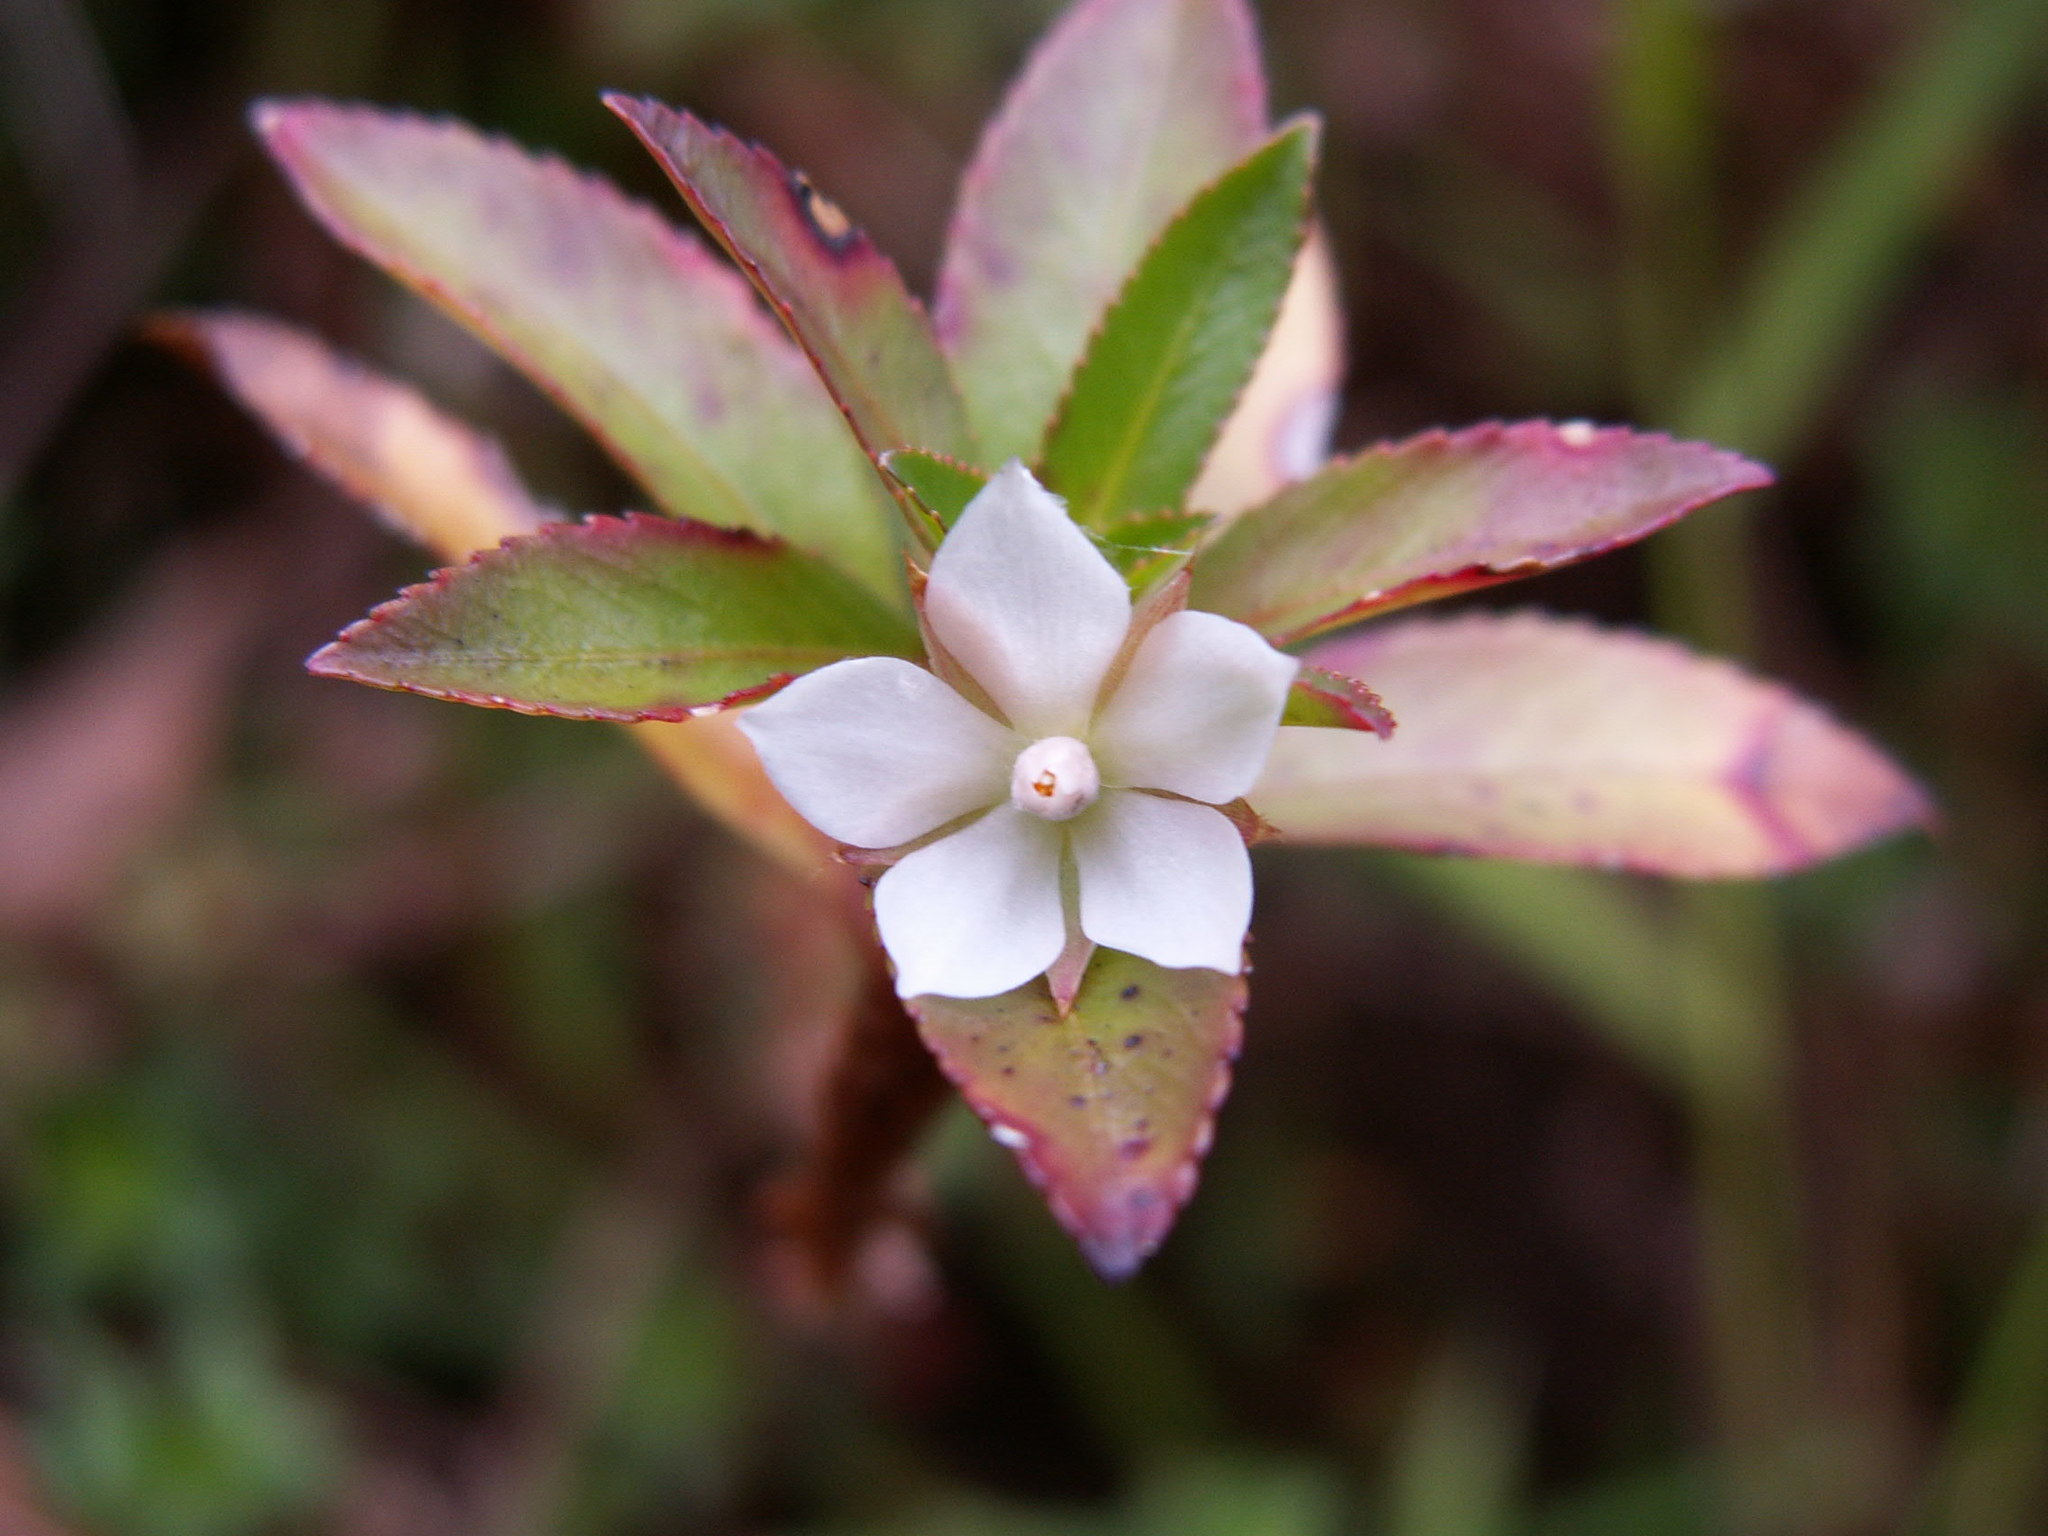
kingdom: Plantae
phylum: Tracheophyta
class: Magnoliopsida
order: Malpighiales
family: Ochnaceae
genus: Sauvagesia
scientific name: Sauvagesia erecta
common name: Creole tea
